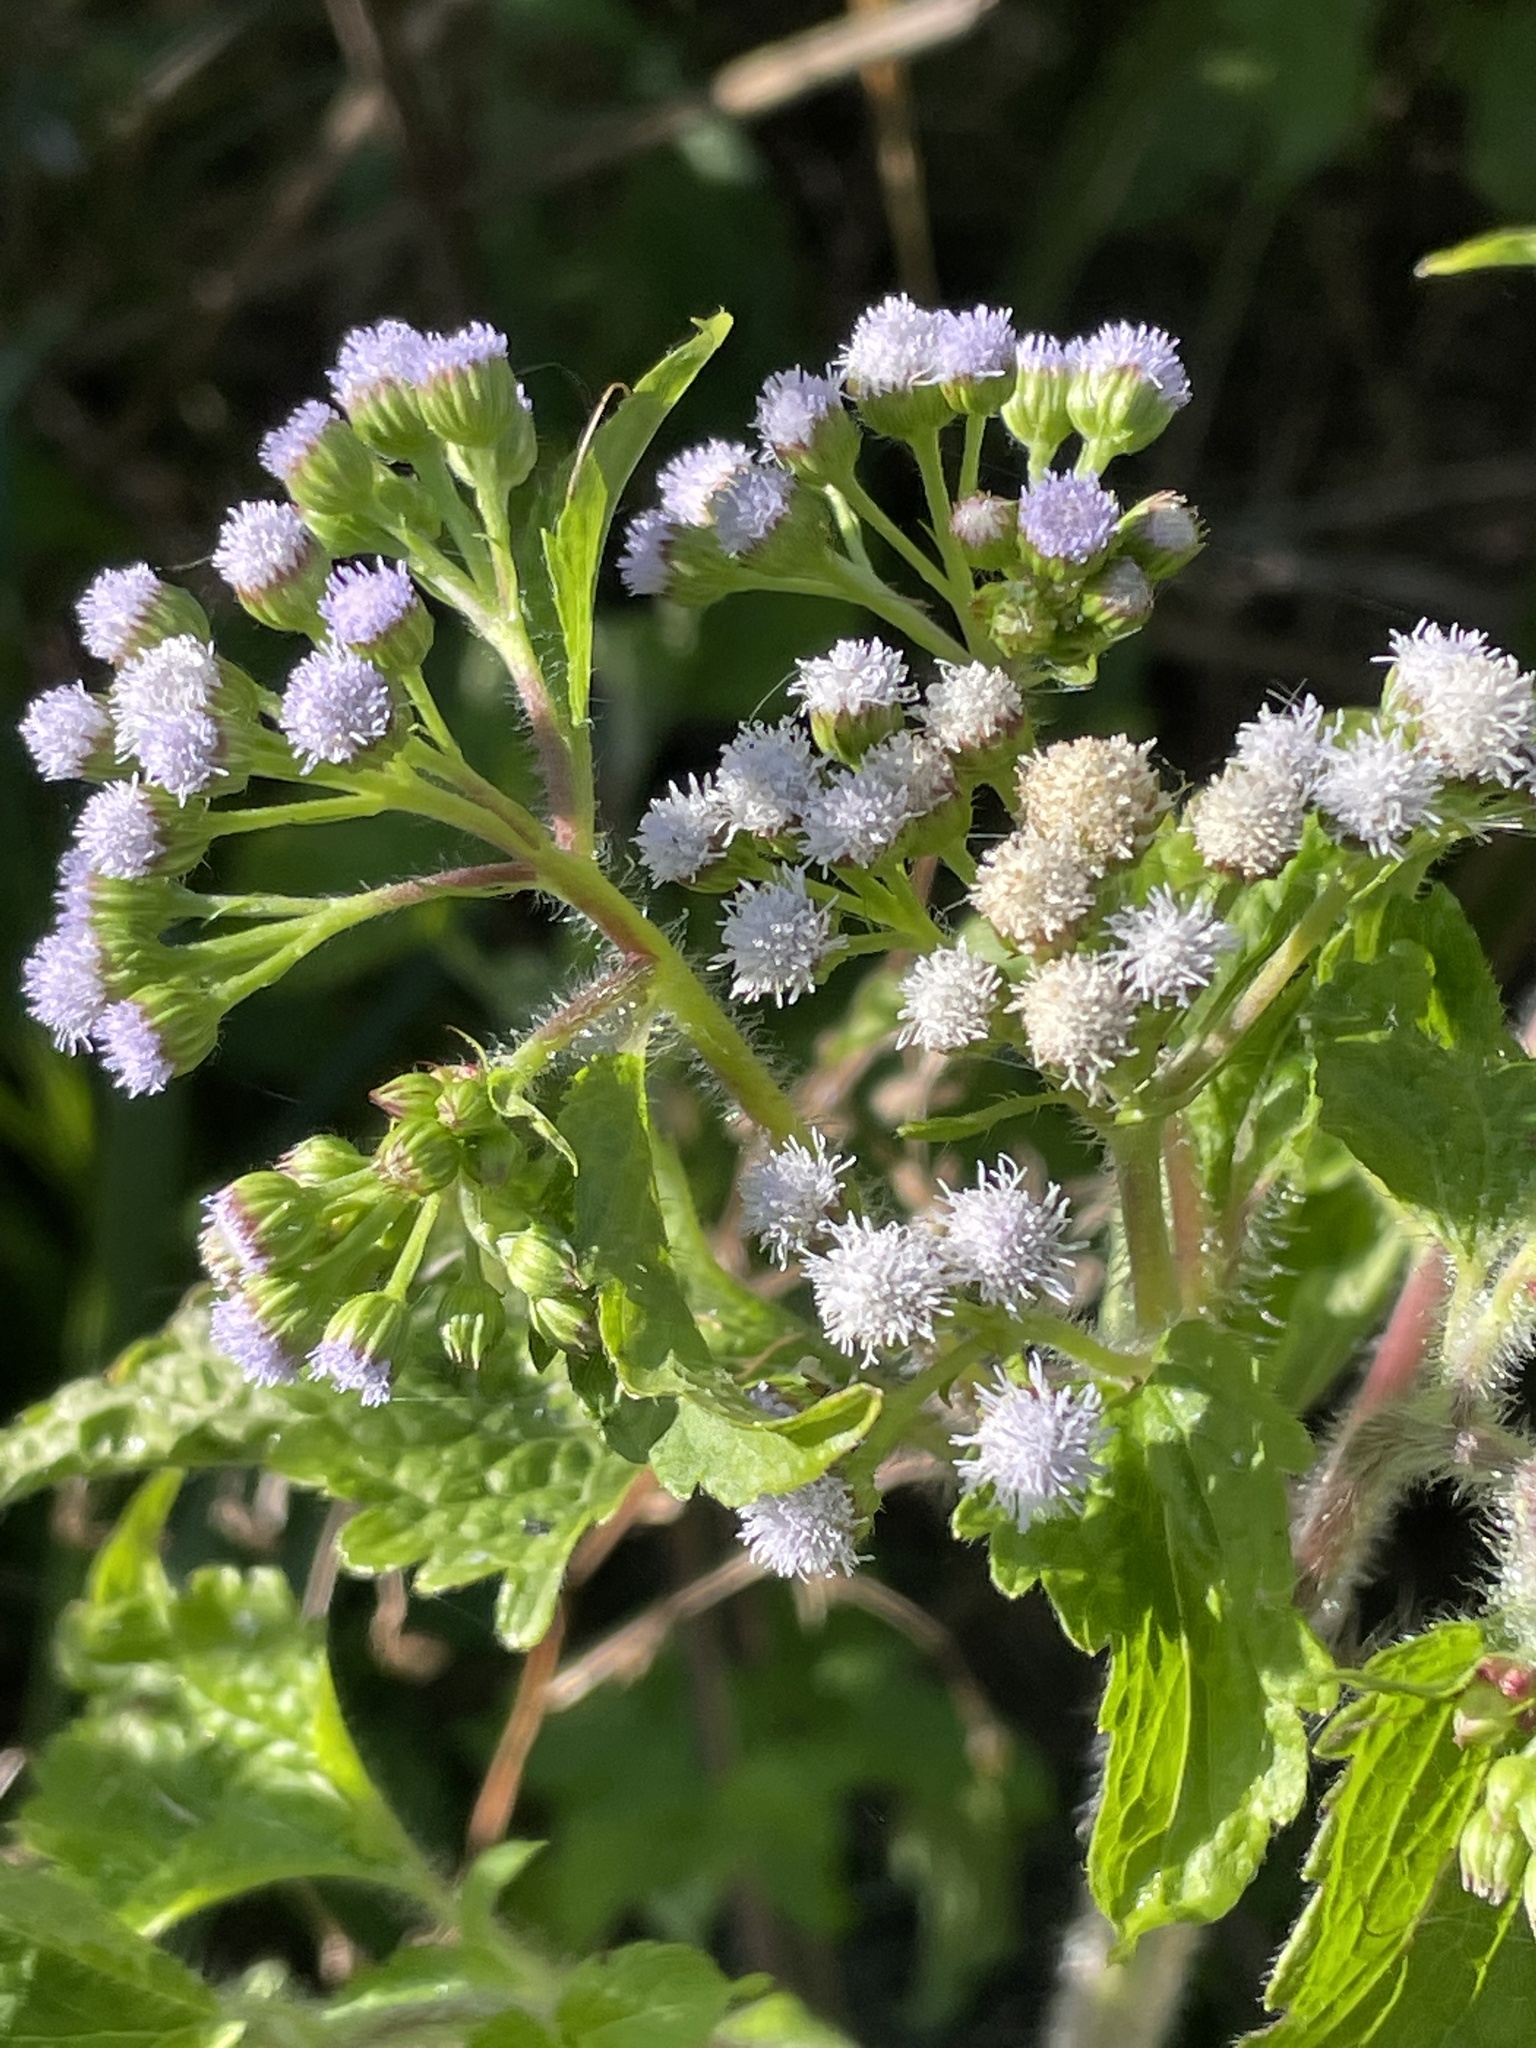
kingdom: Plantae
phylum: Tracheophyta
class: Magnoliopsida
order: Asterales
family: Asteraceae
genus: Ageratum
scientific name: Ageratum conyzoides
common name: Tropical whiteweed
